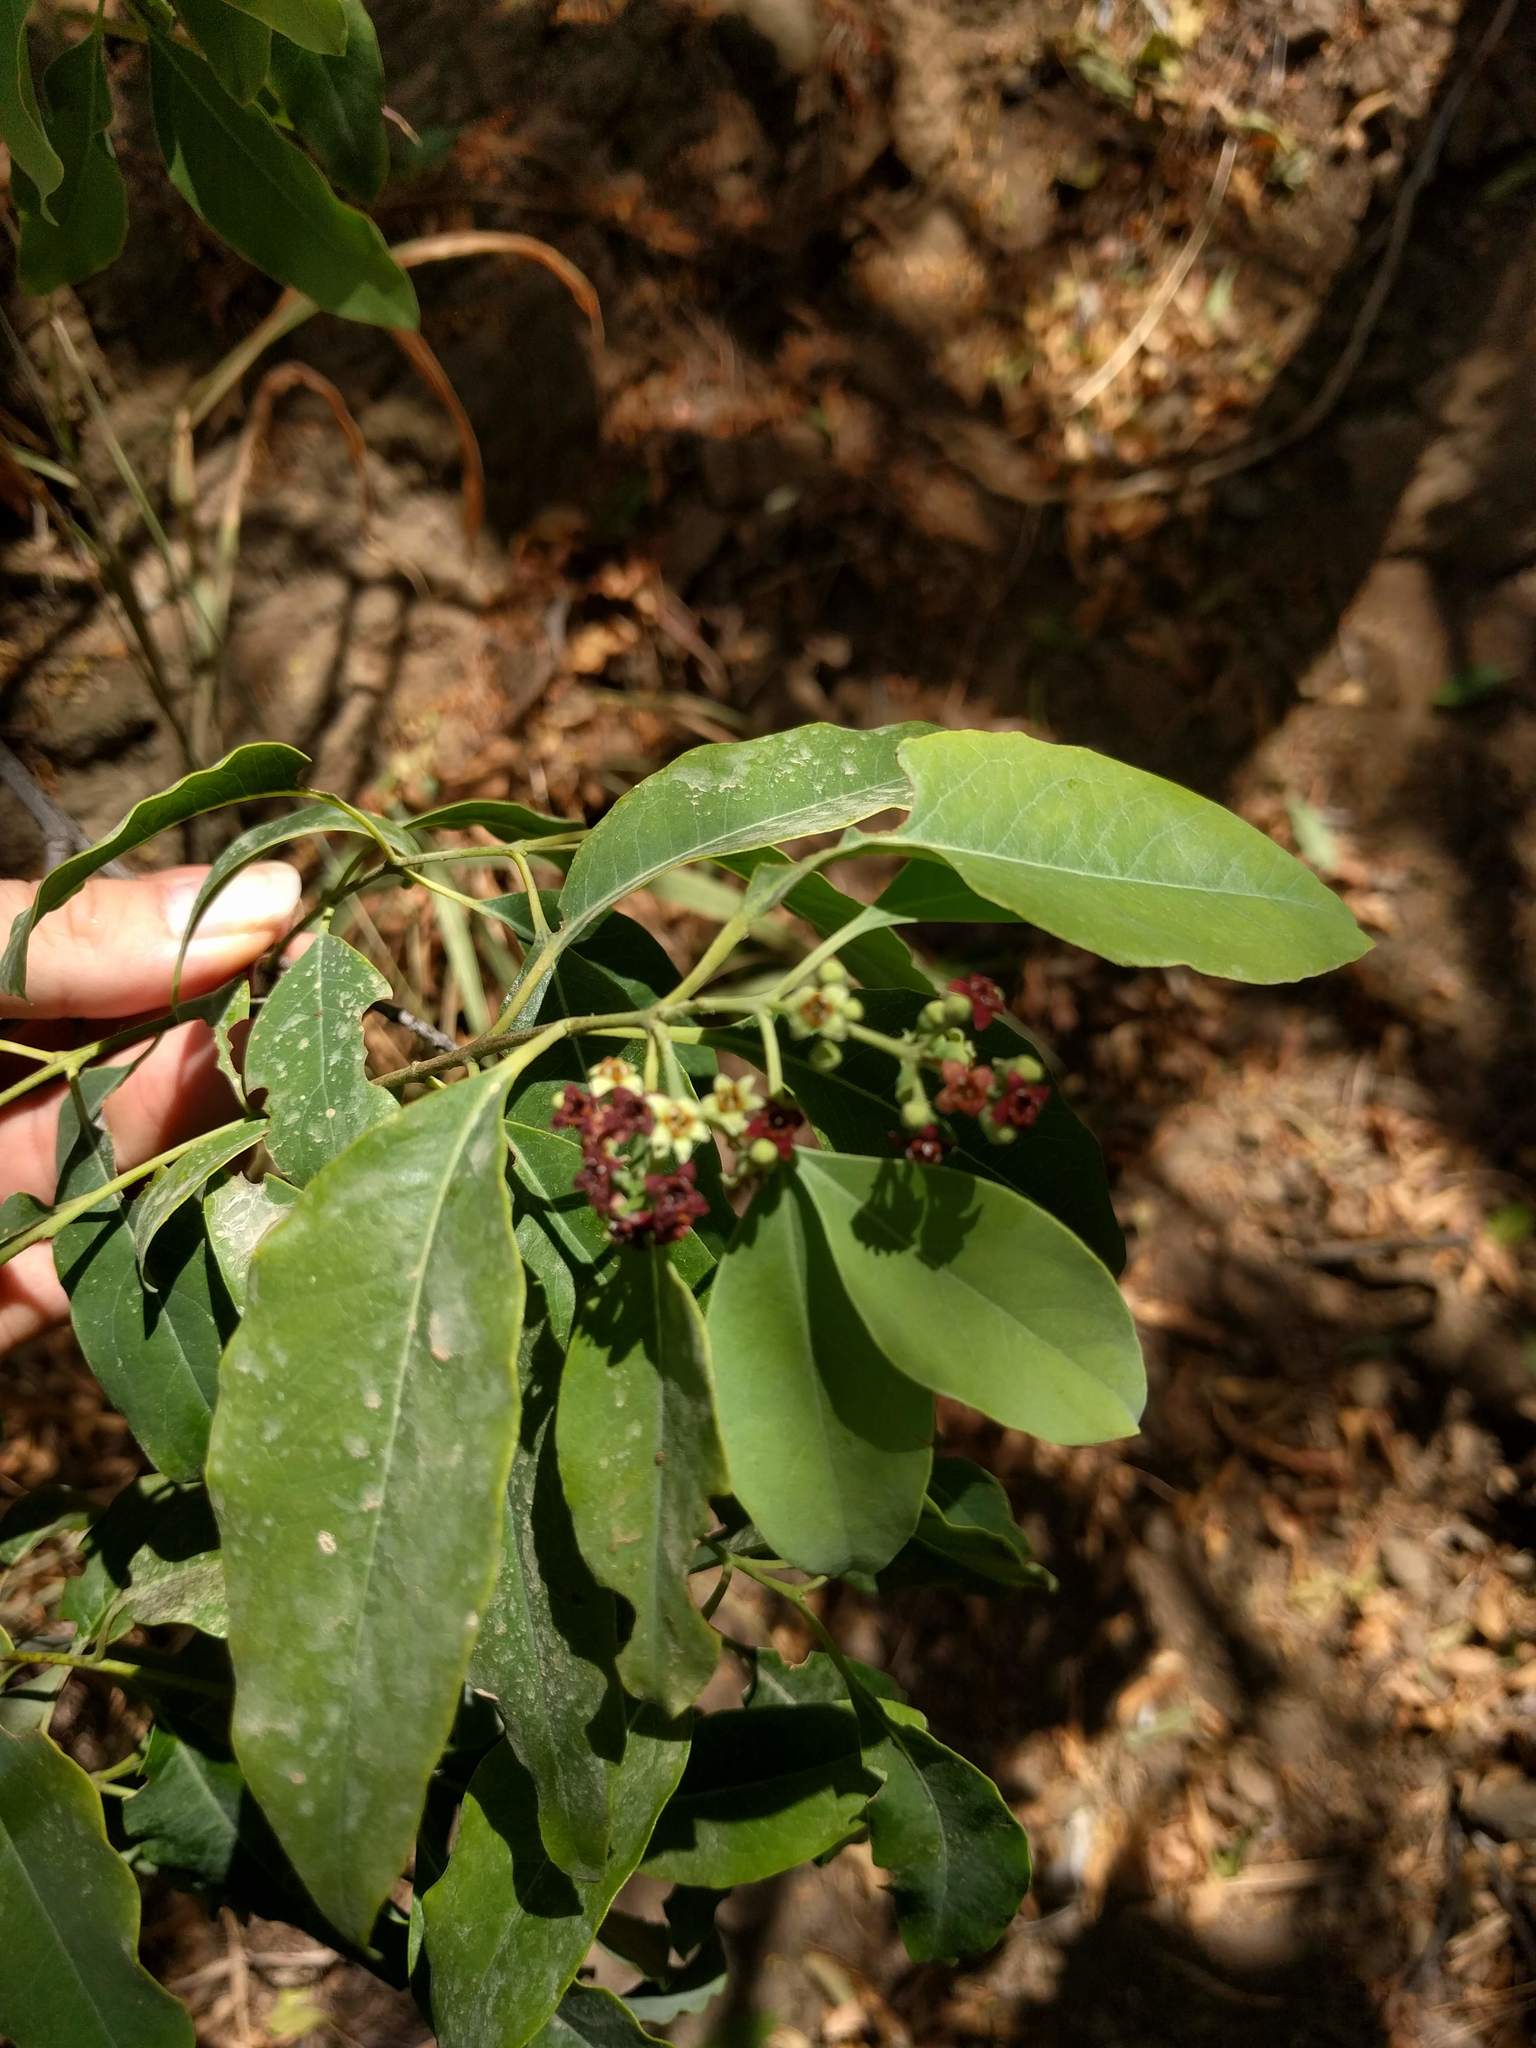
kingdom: Plantae
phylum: Tracheophyta
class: Magnoliopsida
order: Santalales
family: Santalaceae
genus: Santalum
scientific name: Santalum album
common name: Indian sandalwood
